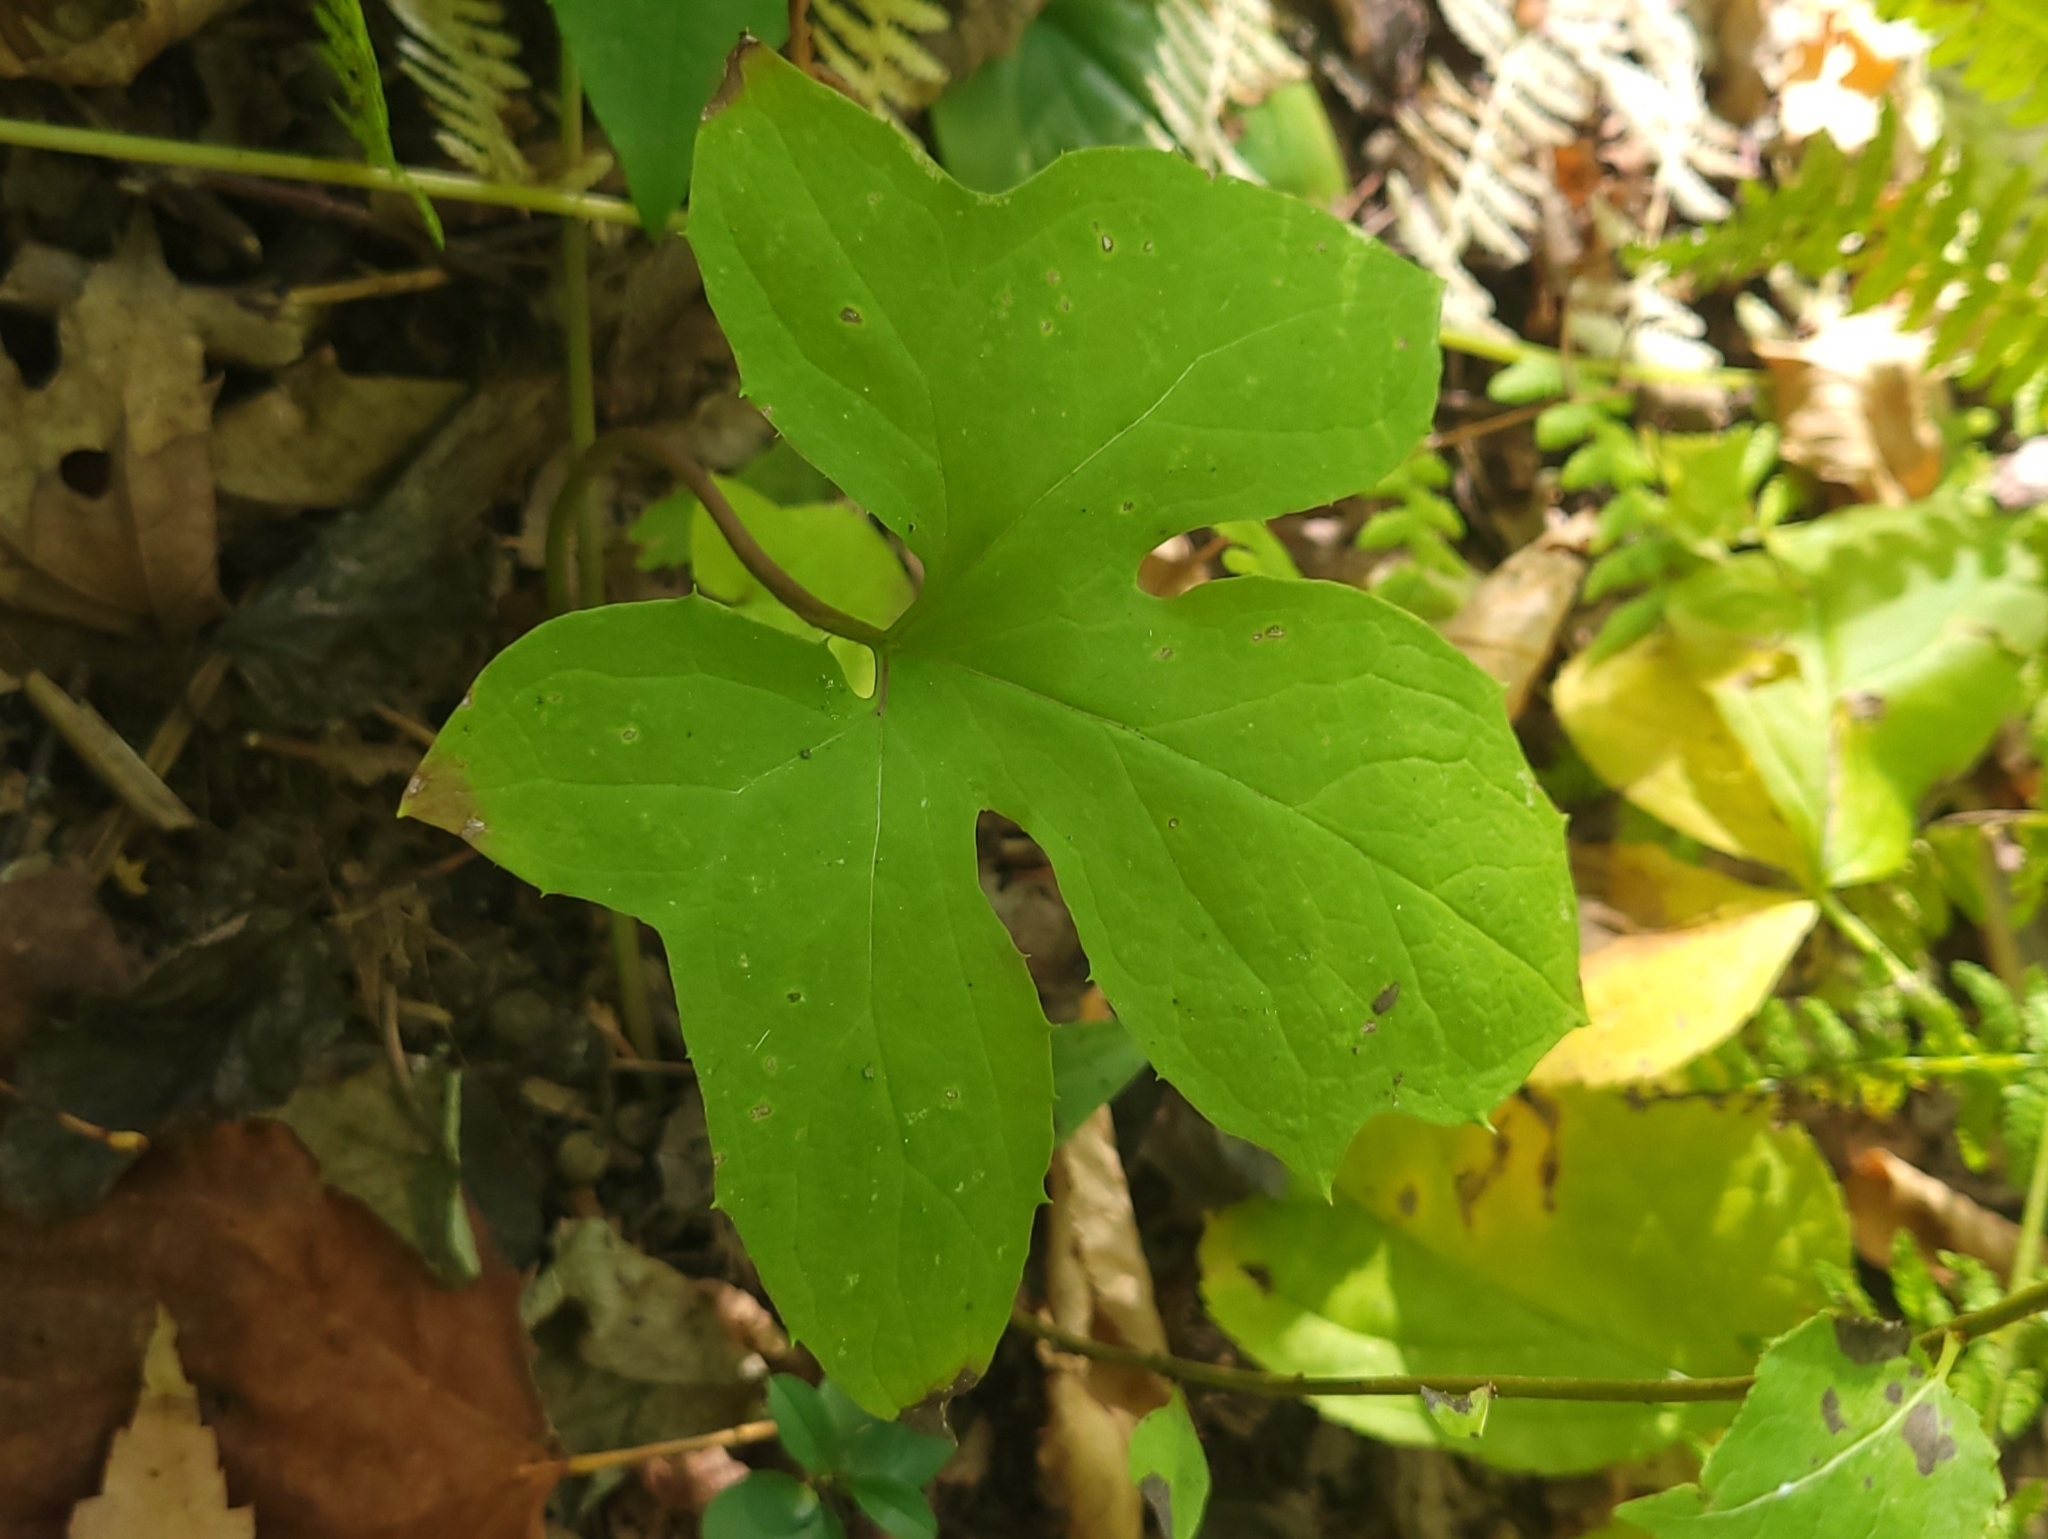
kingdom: Plantae
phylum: Tracheophyta
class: Magnoliopsida
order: Asterales
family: Asteraceae
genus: Nabalus
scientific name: Nabalus
